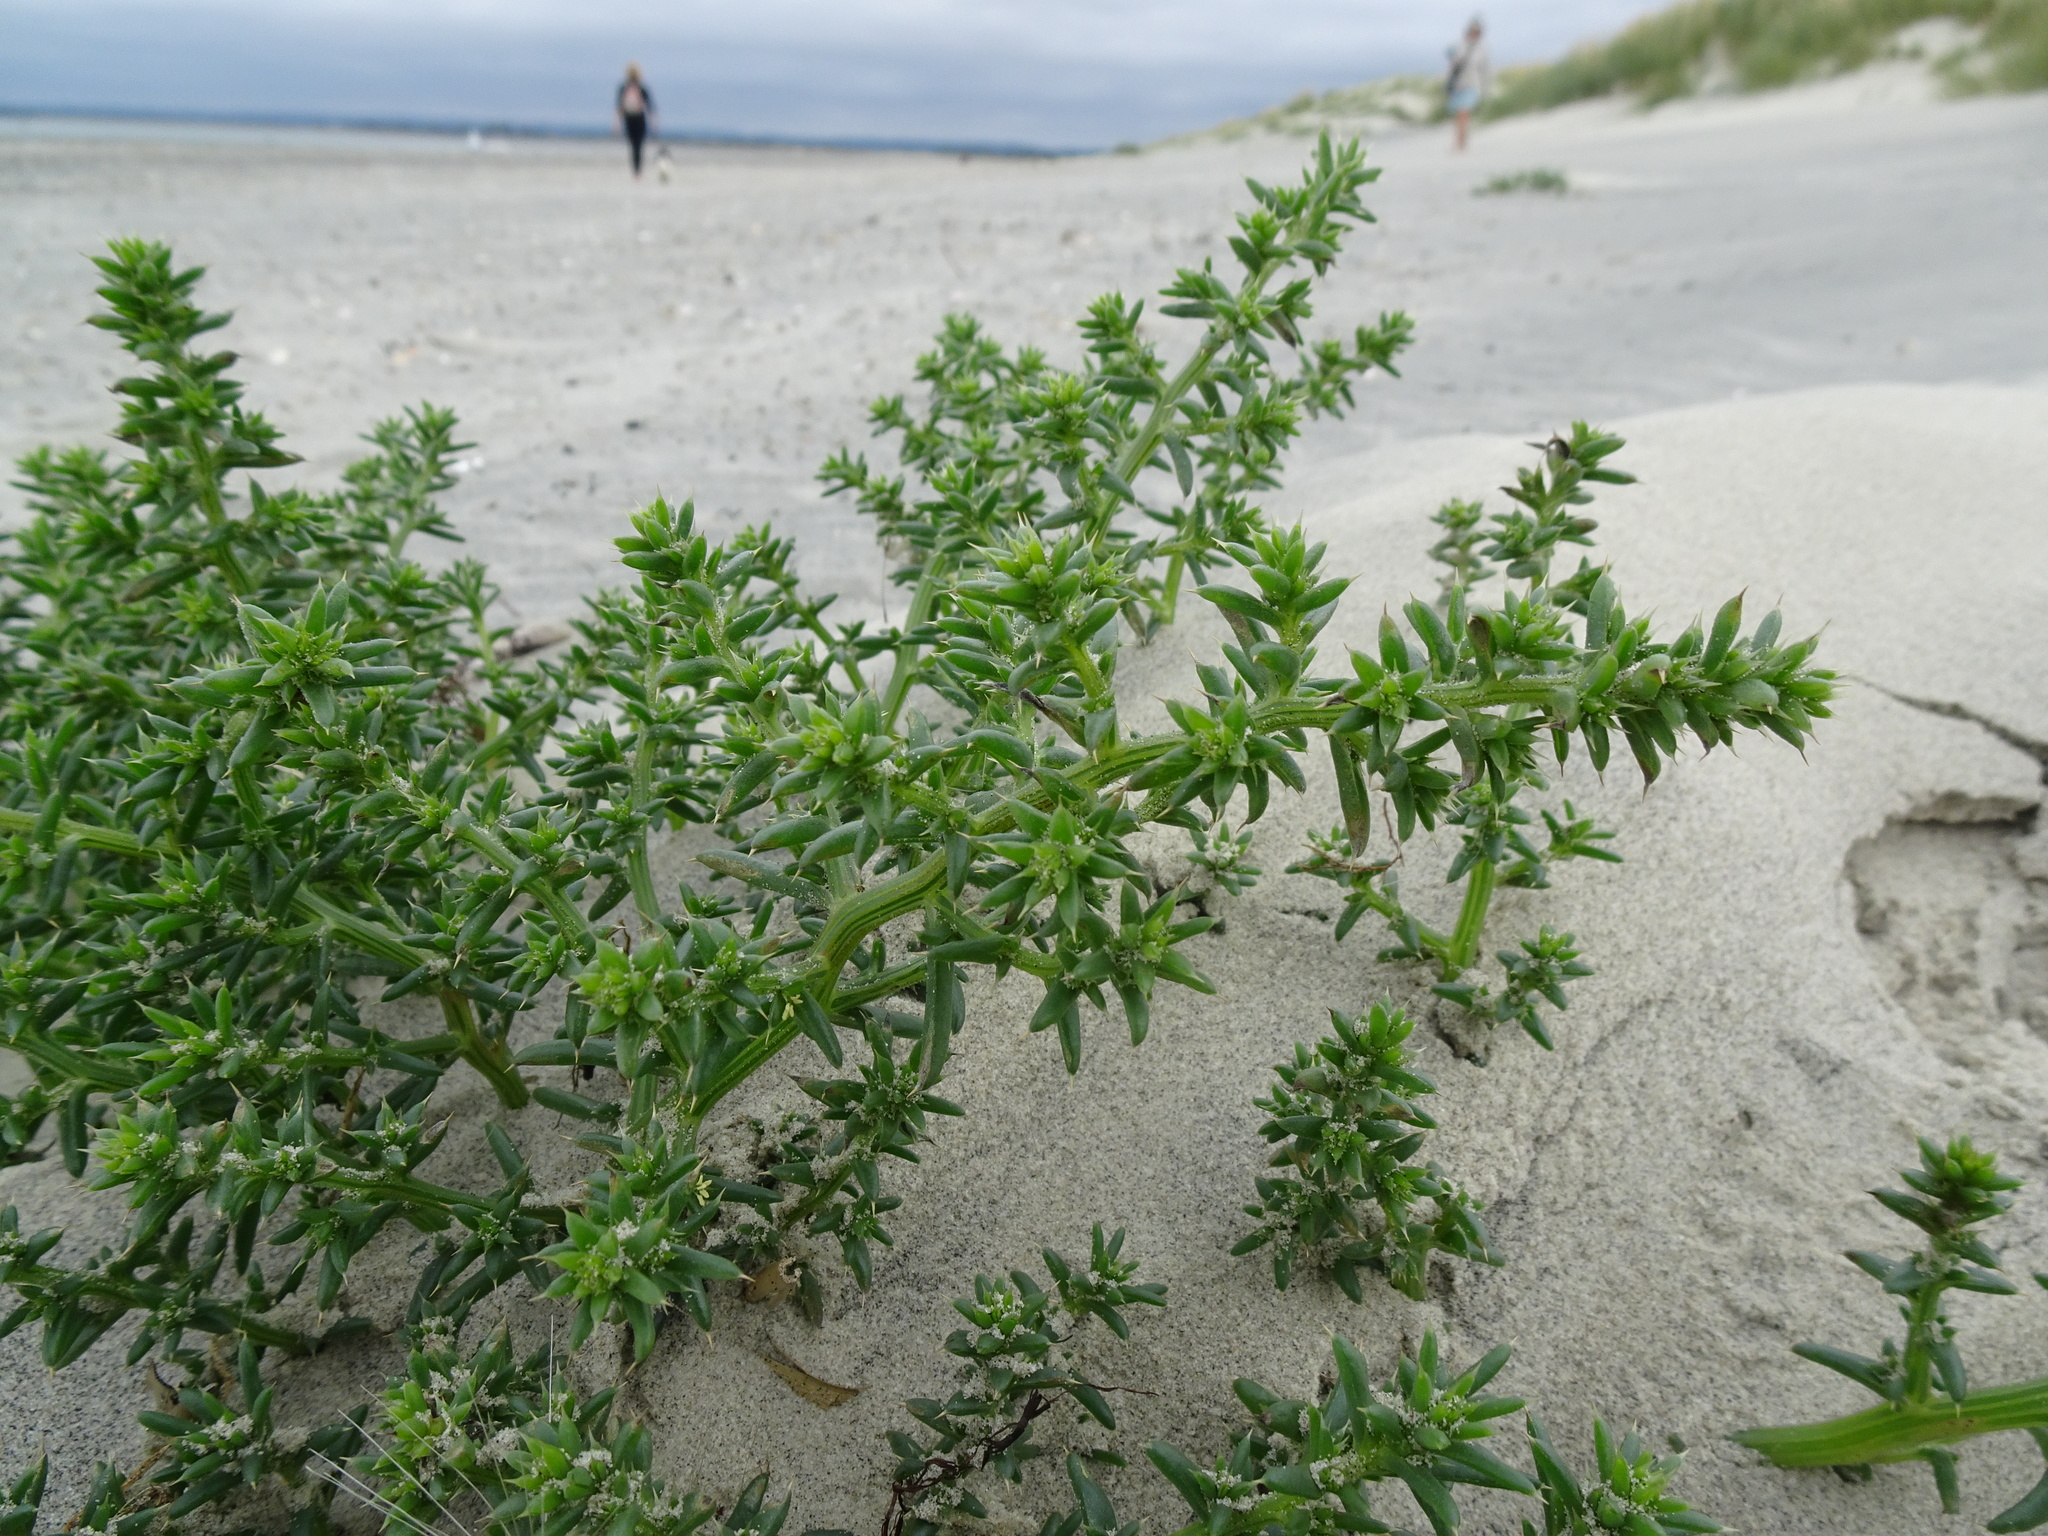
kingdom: Plantae
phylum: Tracheophyta
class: Magnoliopsida
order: Caryophyllales
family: Amaranthaceae
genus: Salsola
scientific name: Salsola kali
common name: Saltwort
